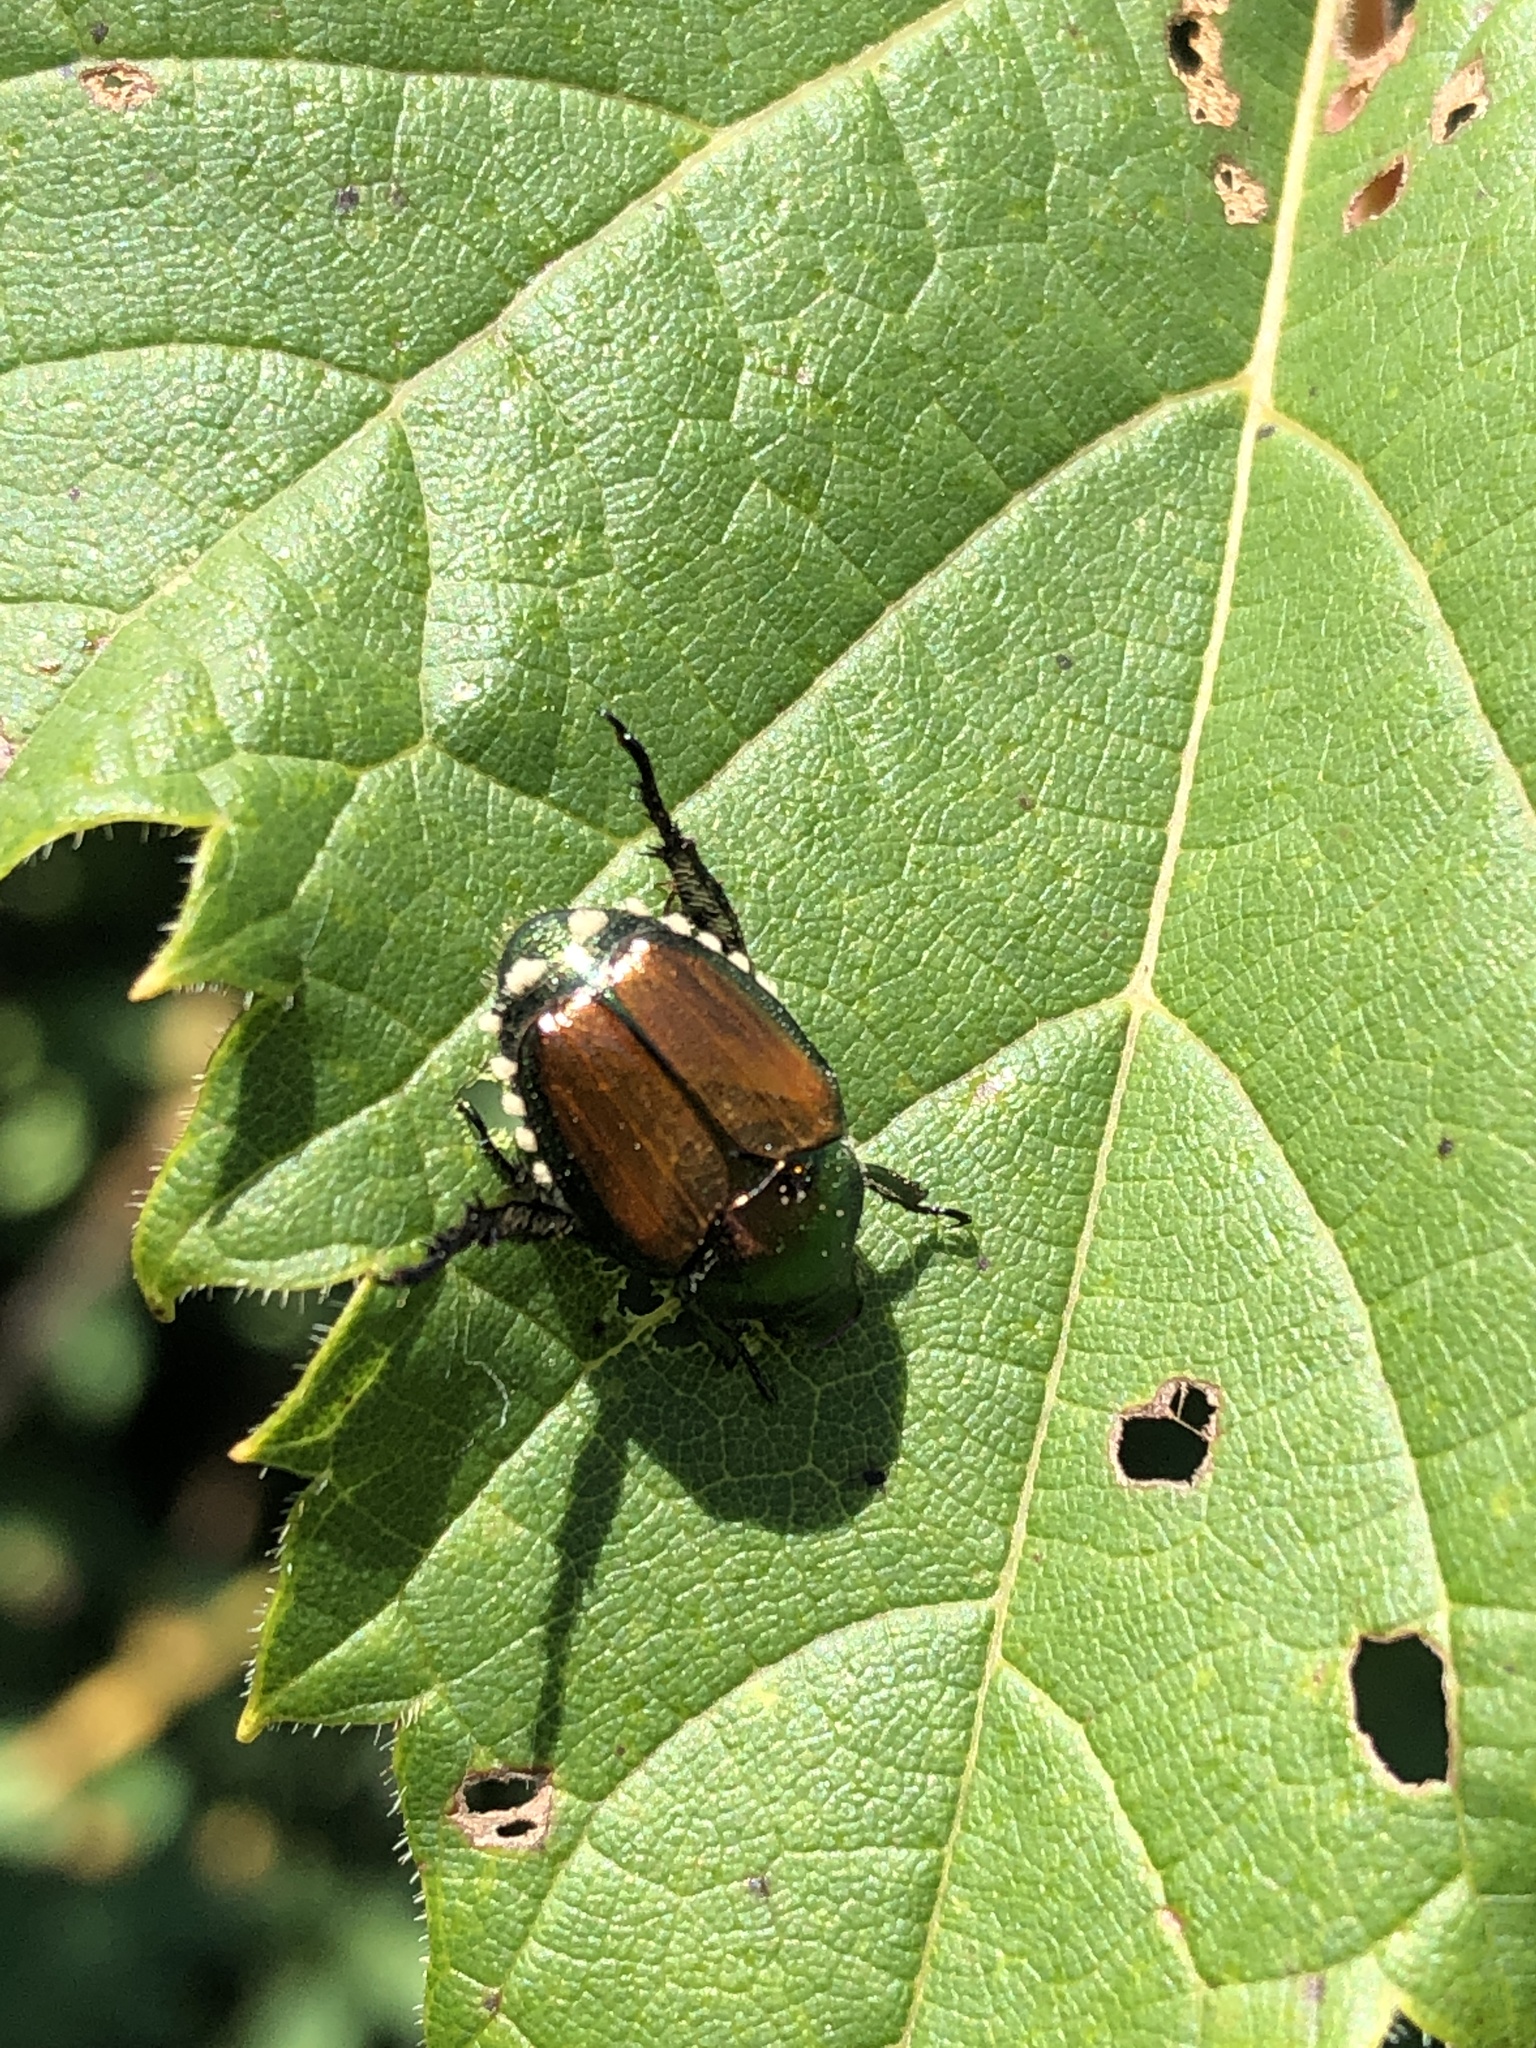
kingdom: Animalia
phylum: Arthropoda
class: Insecta
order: Coleoptera
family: Scarabaeidae
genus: Popillia
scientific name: Popillia japonica
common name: Japanese beetle
